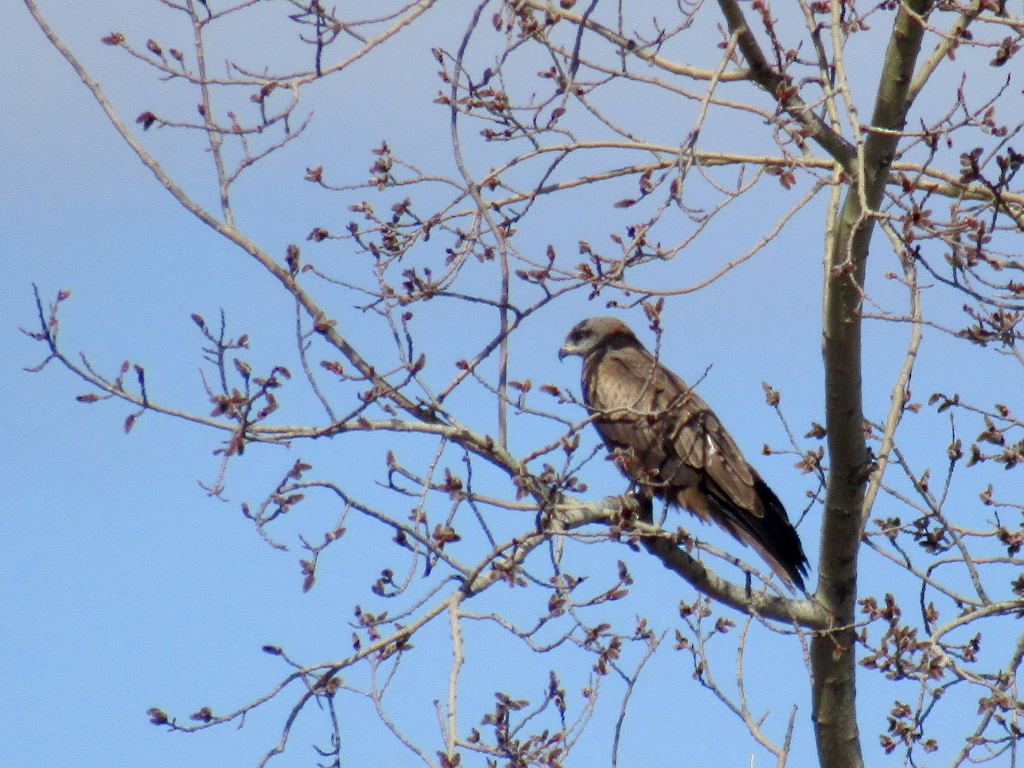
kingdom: Animalia
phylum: Chordata
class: Aves
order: Accipitriformes
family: Accipitridae
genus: Milvus
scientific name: Milvus migrans
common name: Black kite
